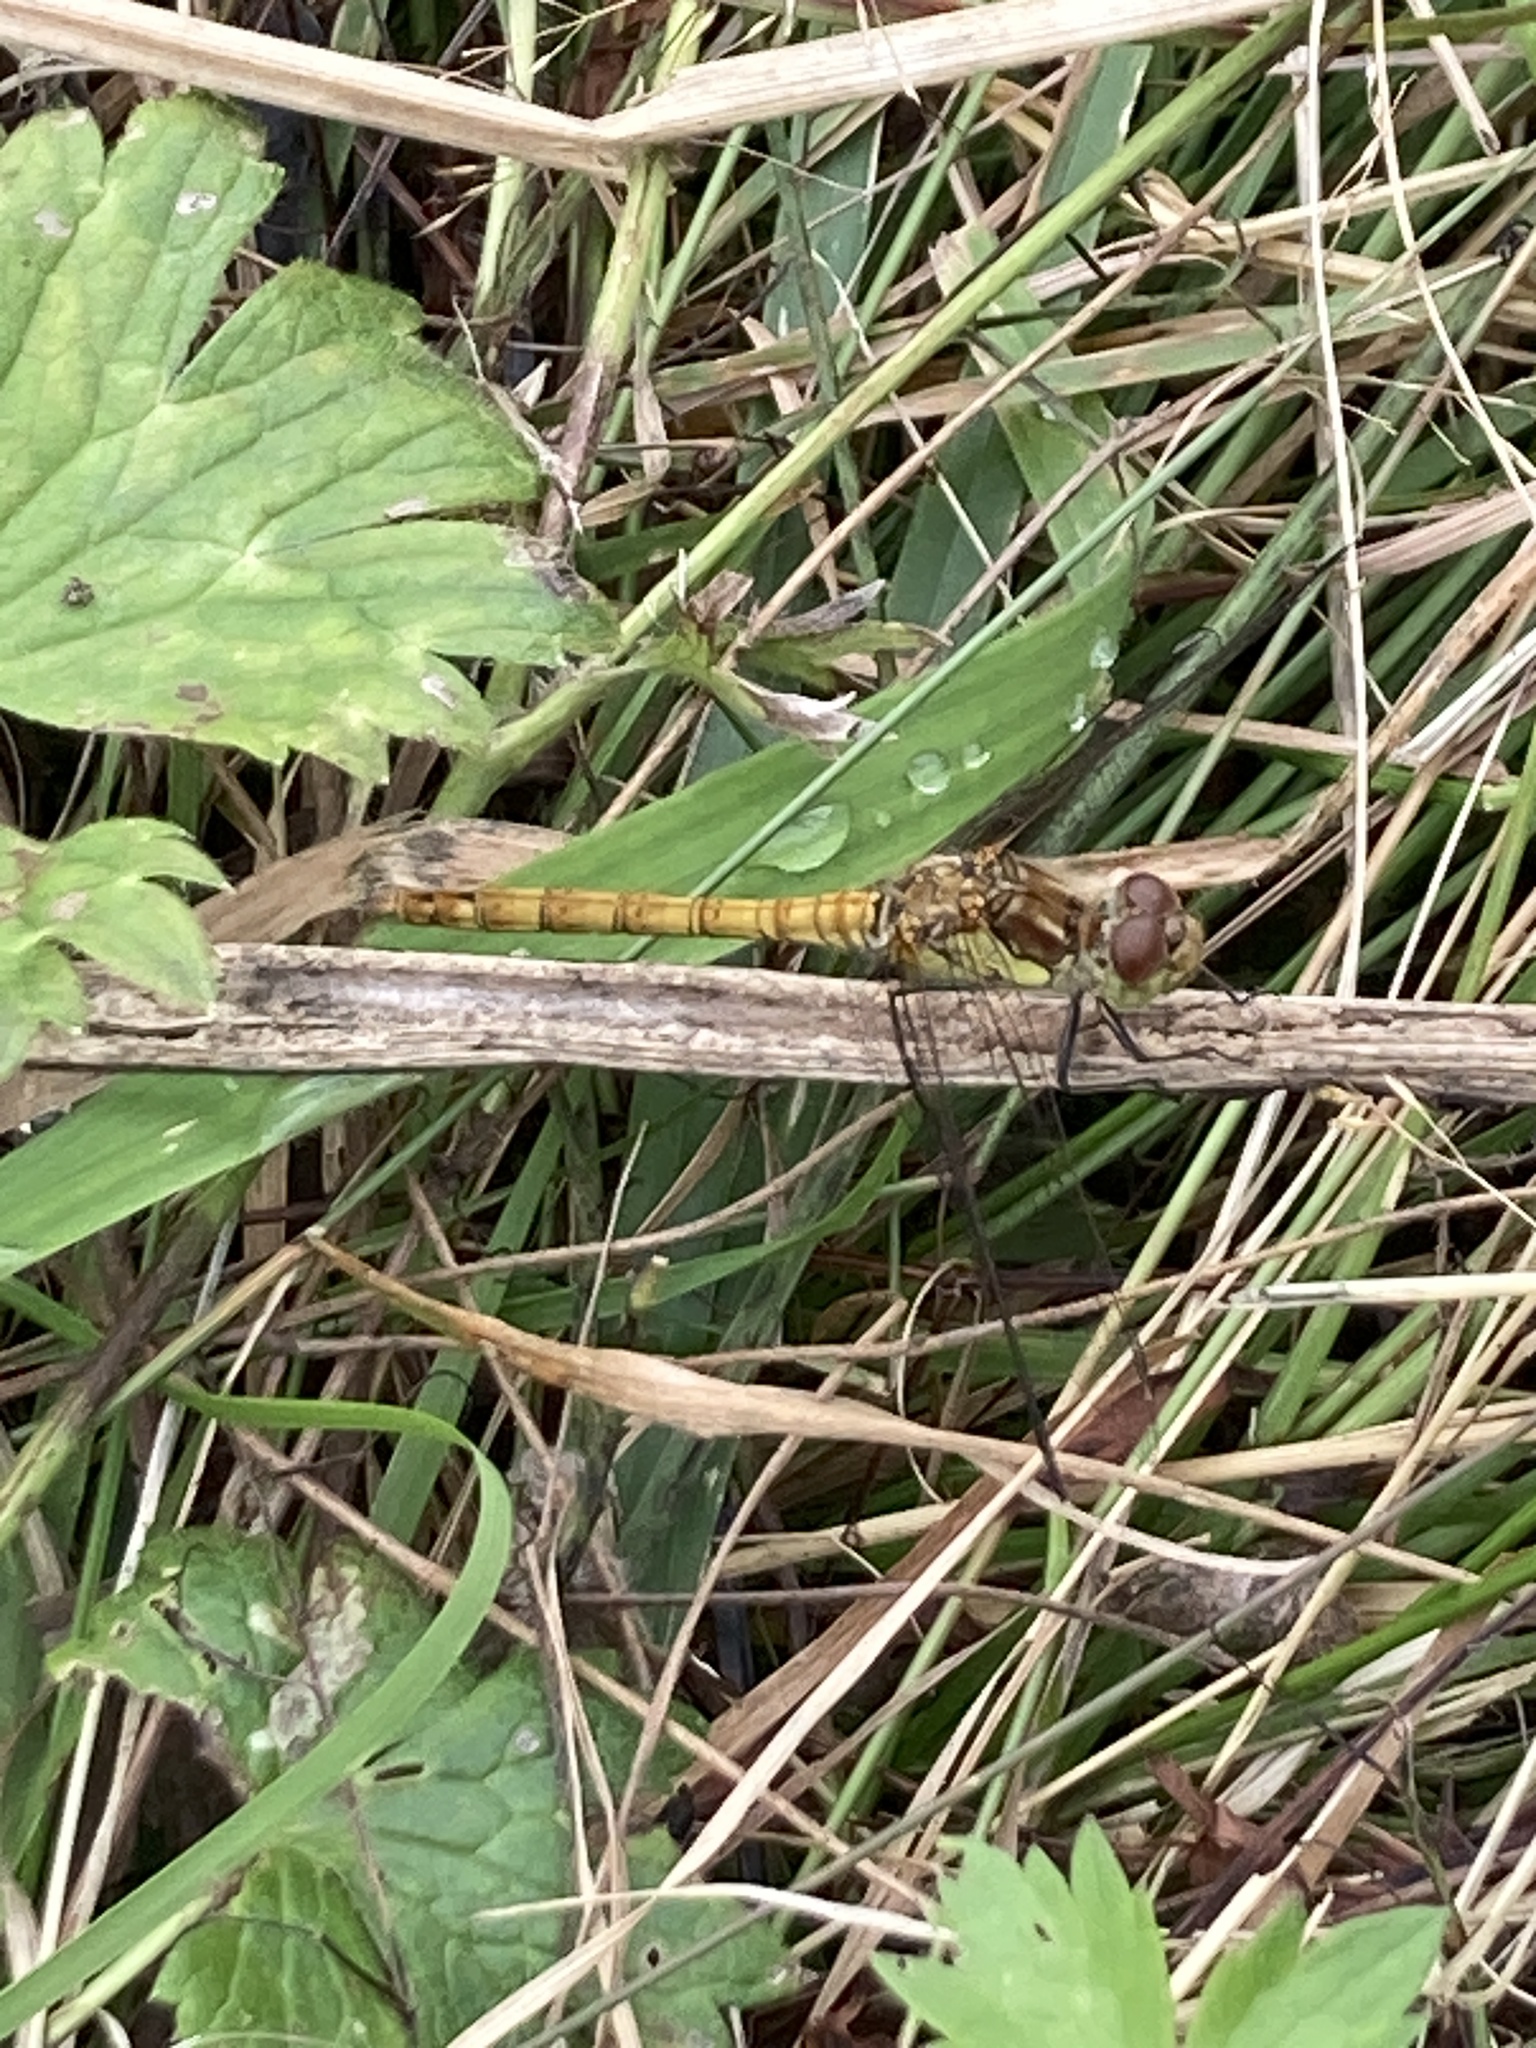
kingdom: Animalia
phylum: Arthropoda
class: Insecta
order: Odonata
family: Libellulidae
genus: Sympetrum
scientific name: Sympetrum striolatum
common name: Common darter
